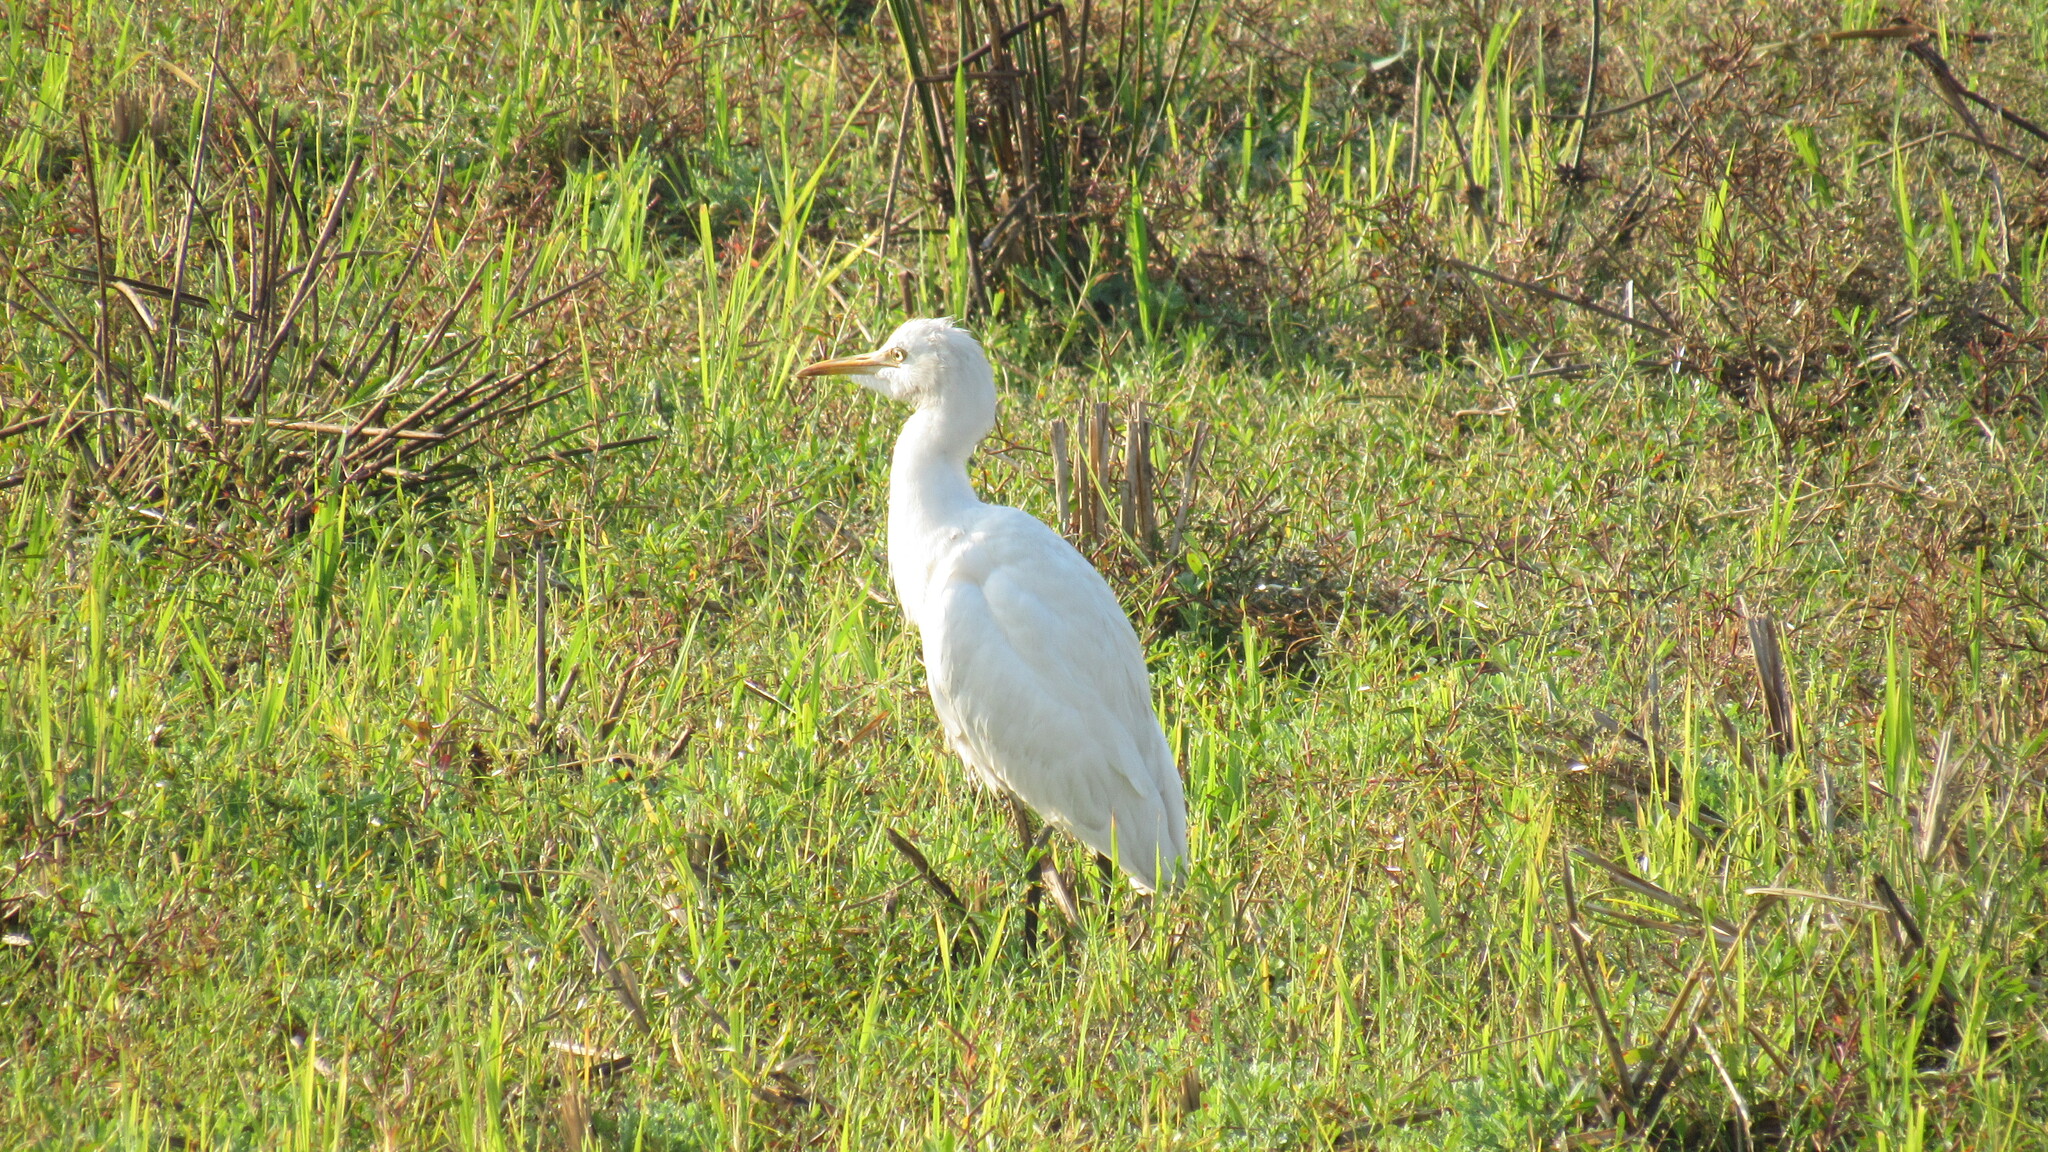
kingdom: Animalia
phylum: Chordata
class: Aves
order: Pelecaniformes
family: Ardeidae
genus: Bubulcus
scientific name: Bubulcus coromandus
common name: Eastern cattle egret
